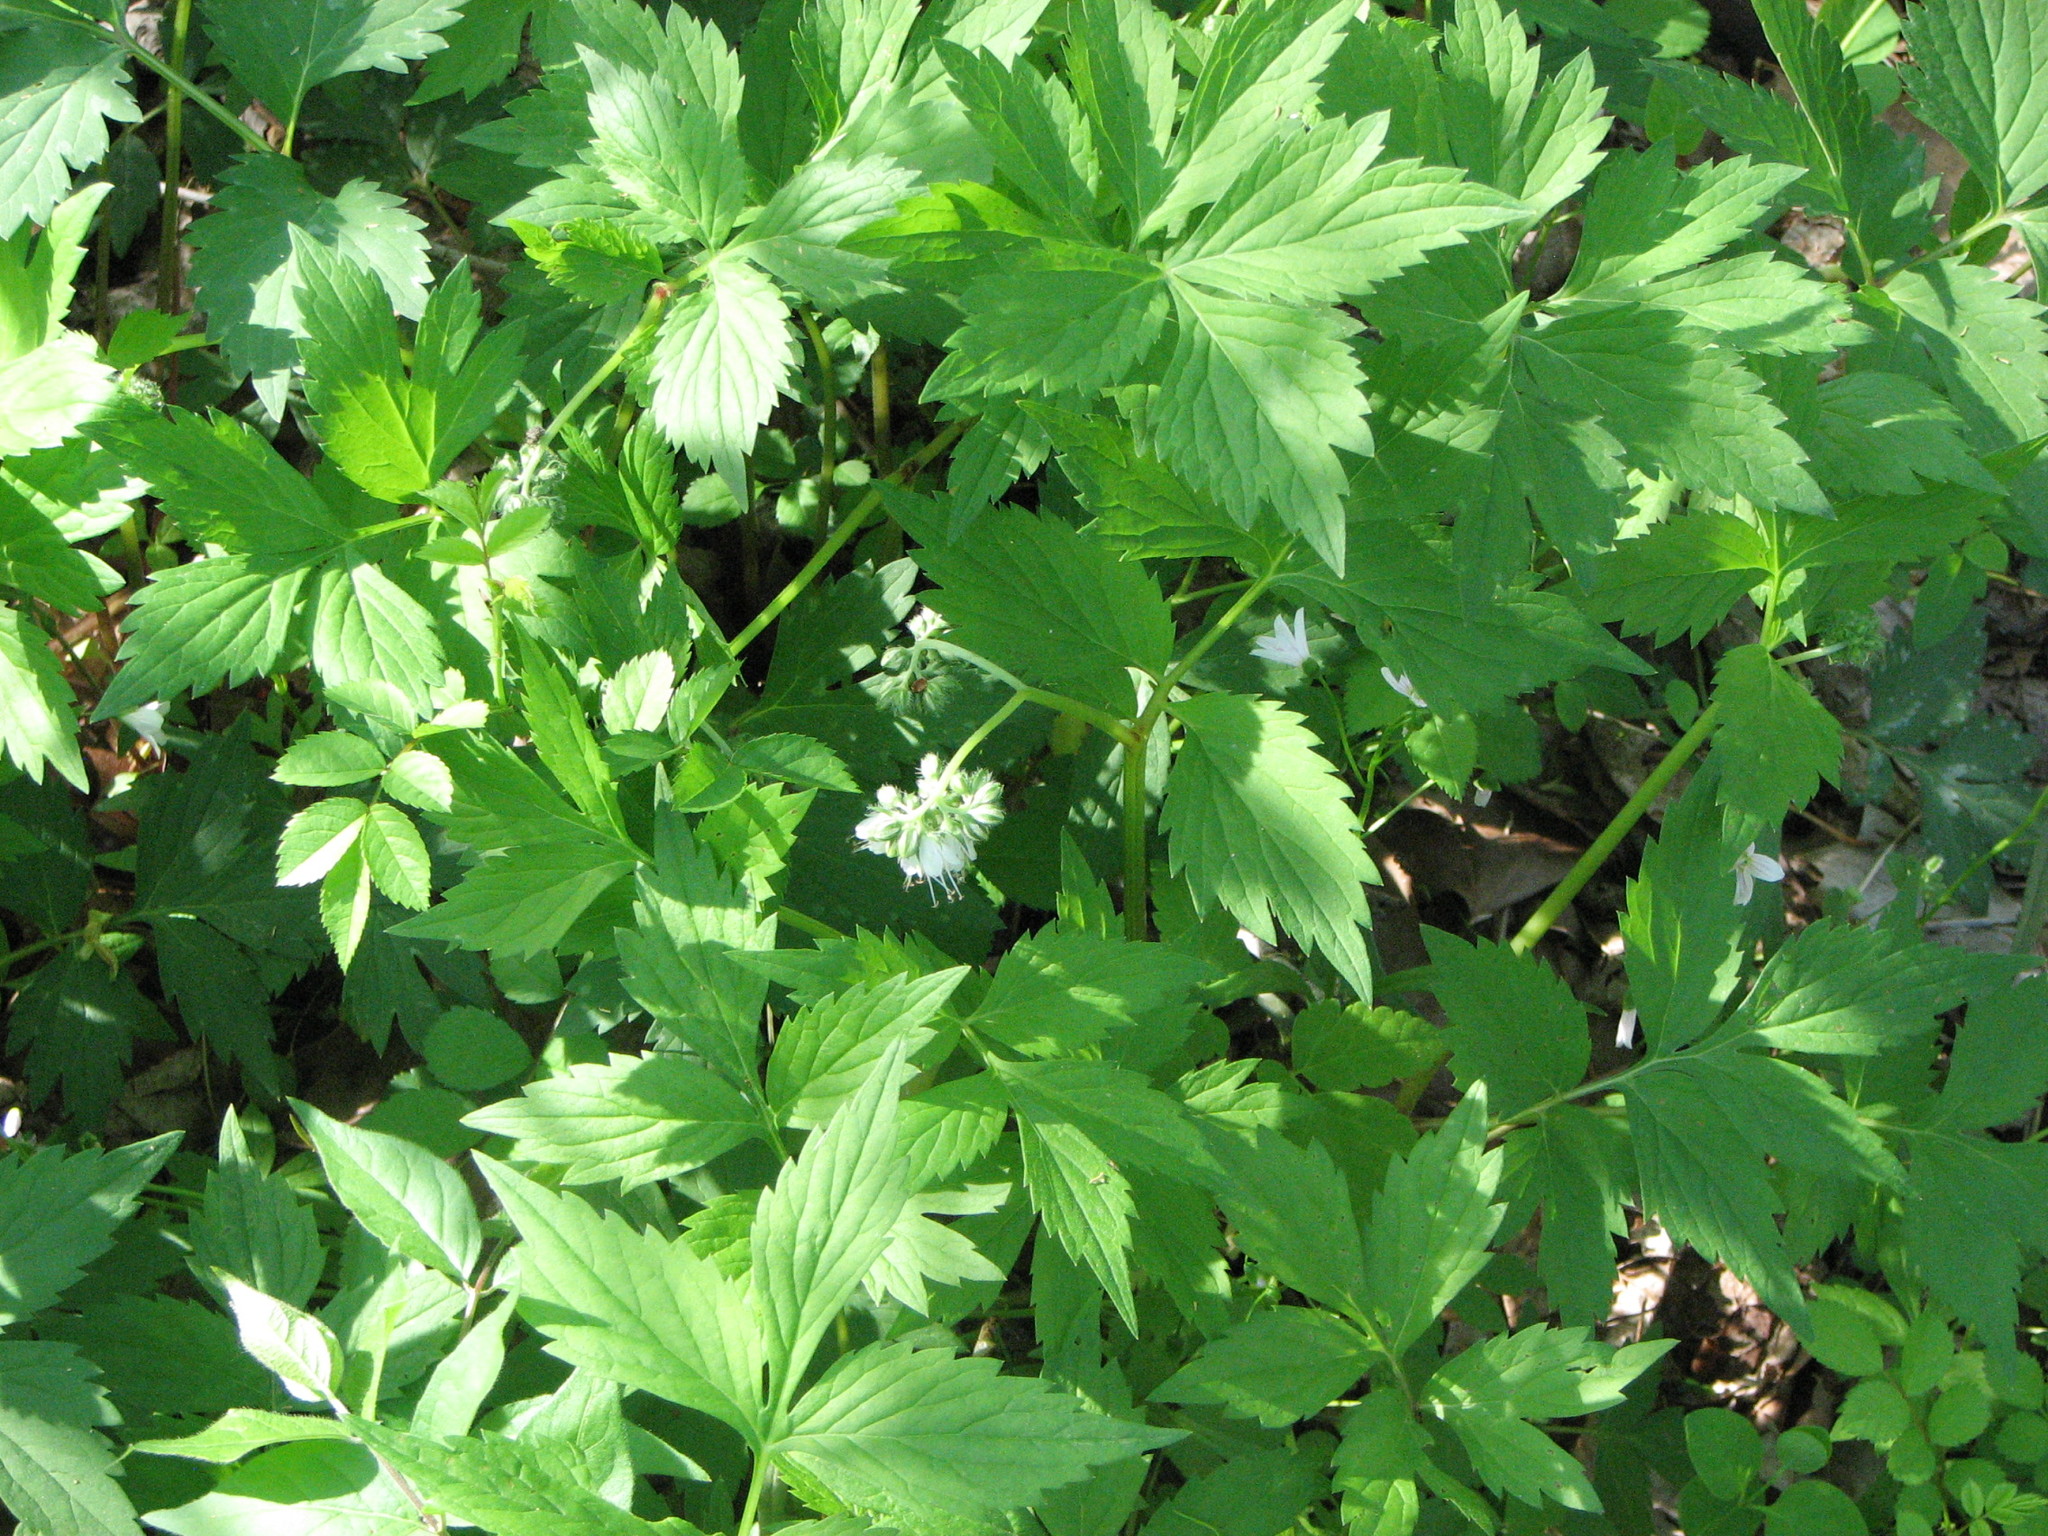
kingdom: Plantae
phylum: Tracheophyta
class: Magnoliopsida
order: Boraginales
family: Hydrophyllaceae
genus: Hydrophyllum
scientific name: Hydrophyllum virginianum
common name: Virginia waterleaf
